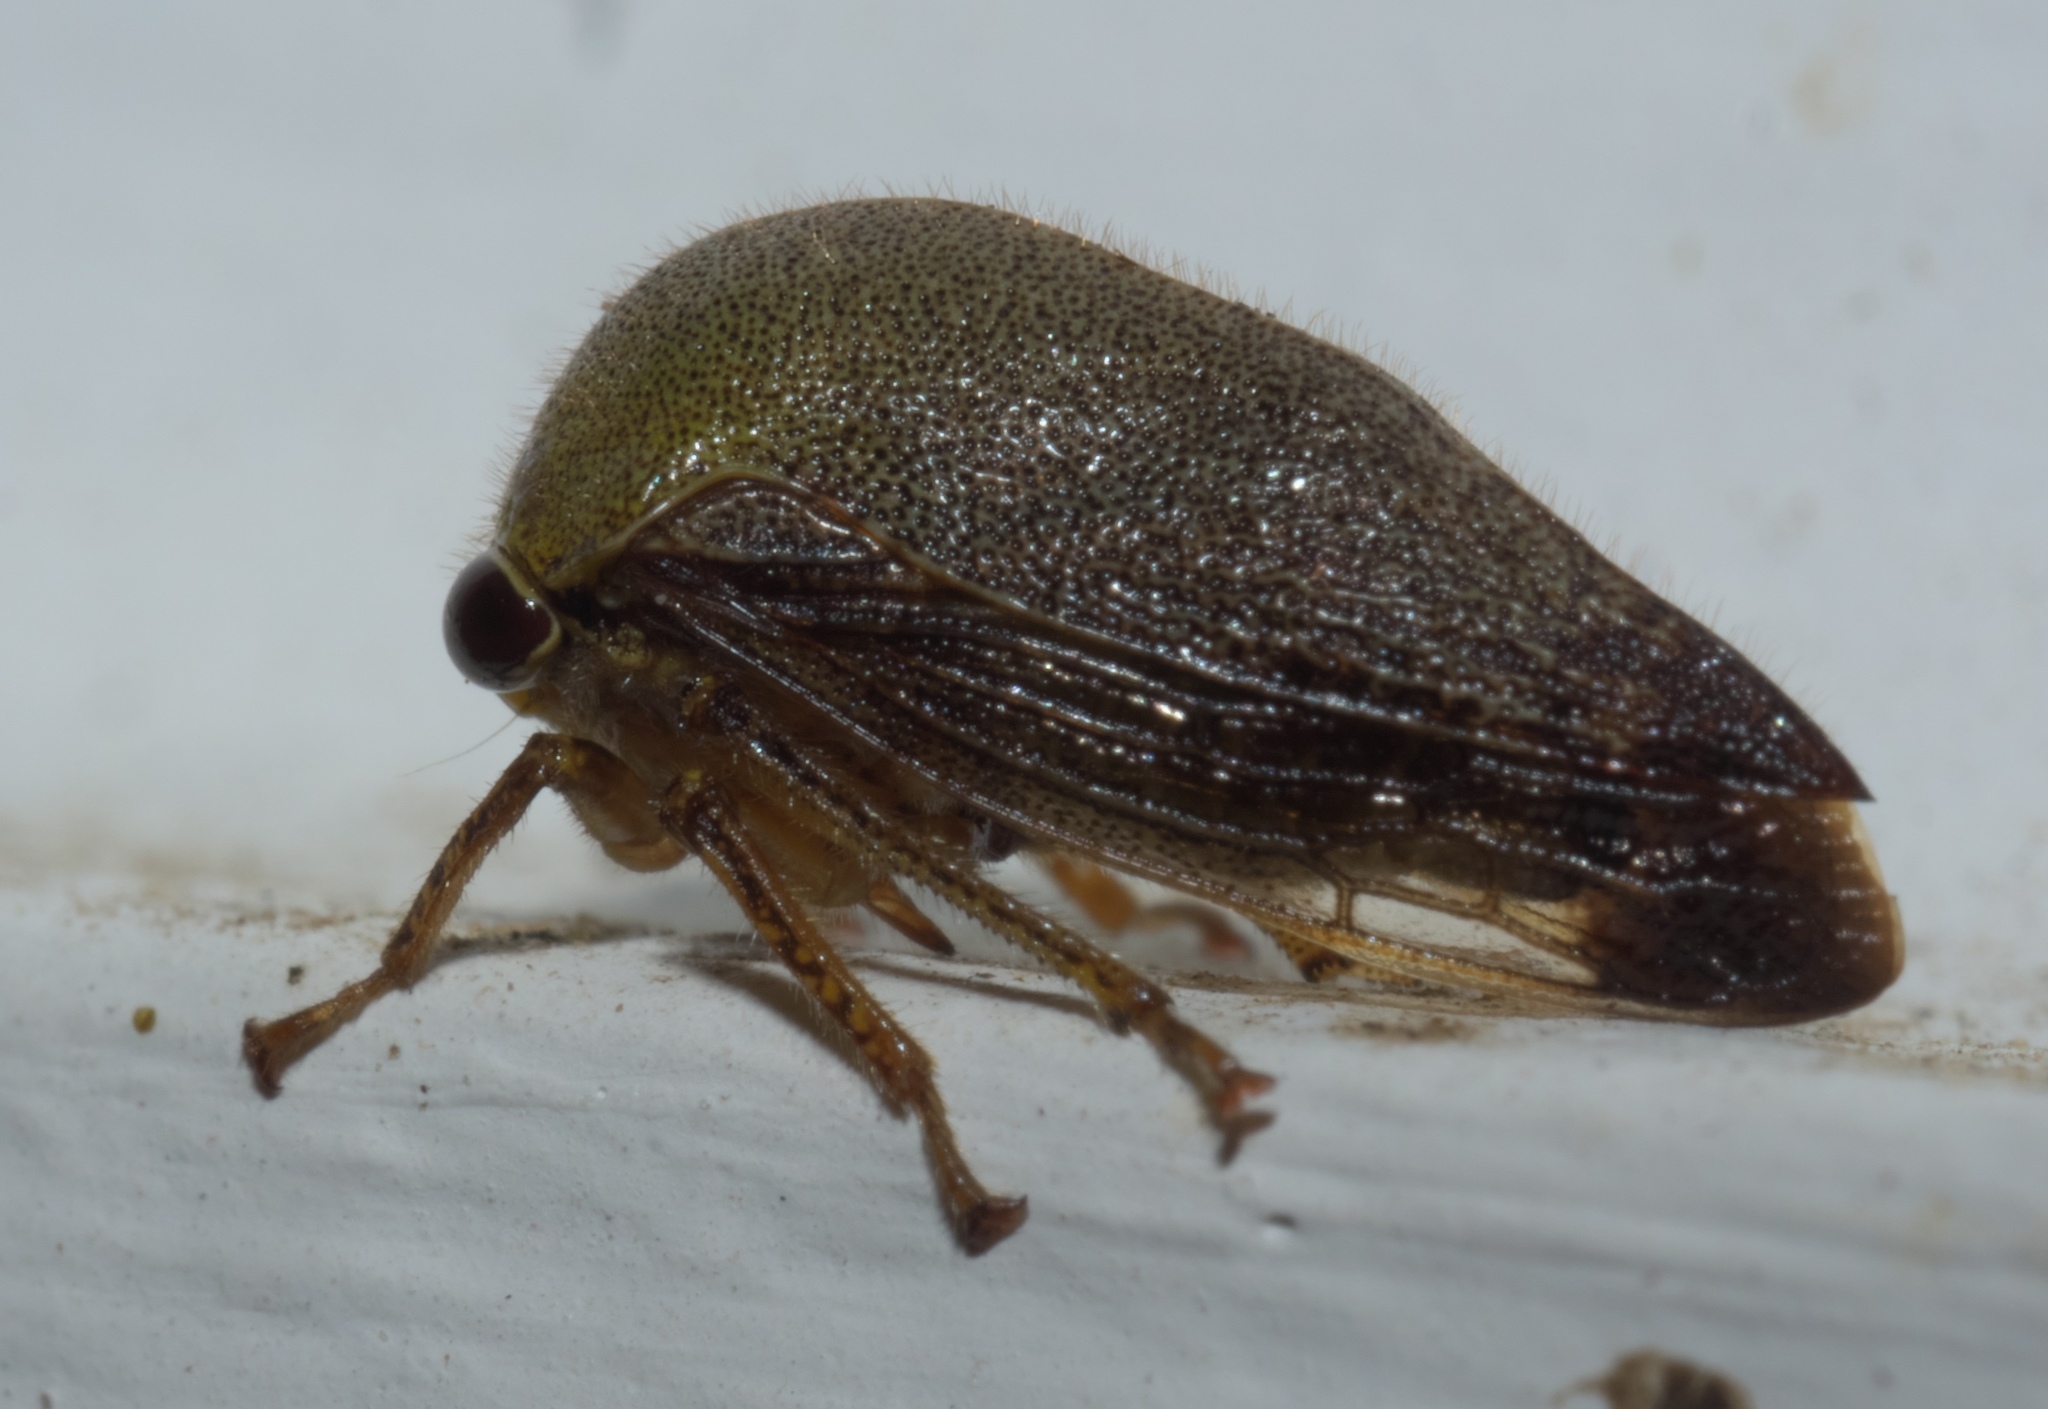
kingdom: Animalia
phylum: Arthropoda
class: Insecta
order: Hemiptera
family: Membracidae
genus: Carynota
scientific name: Carynota mera
